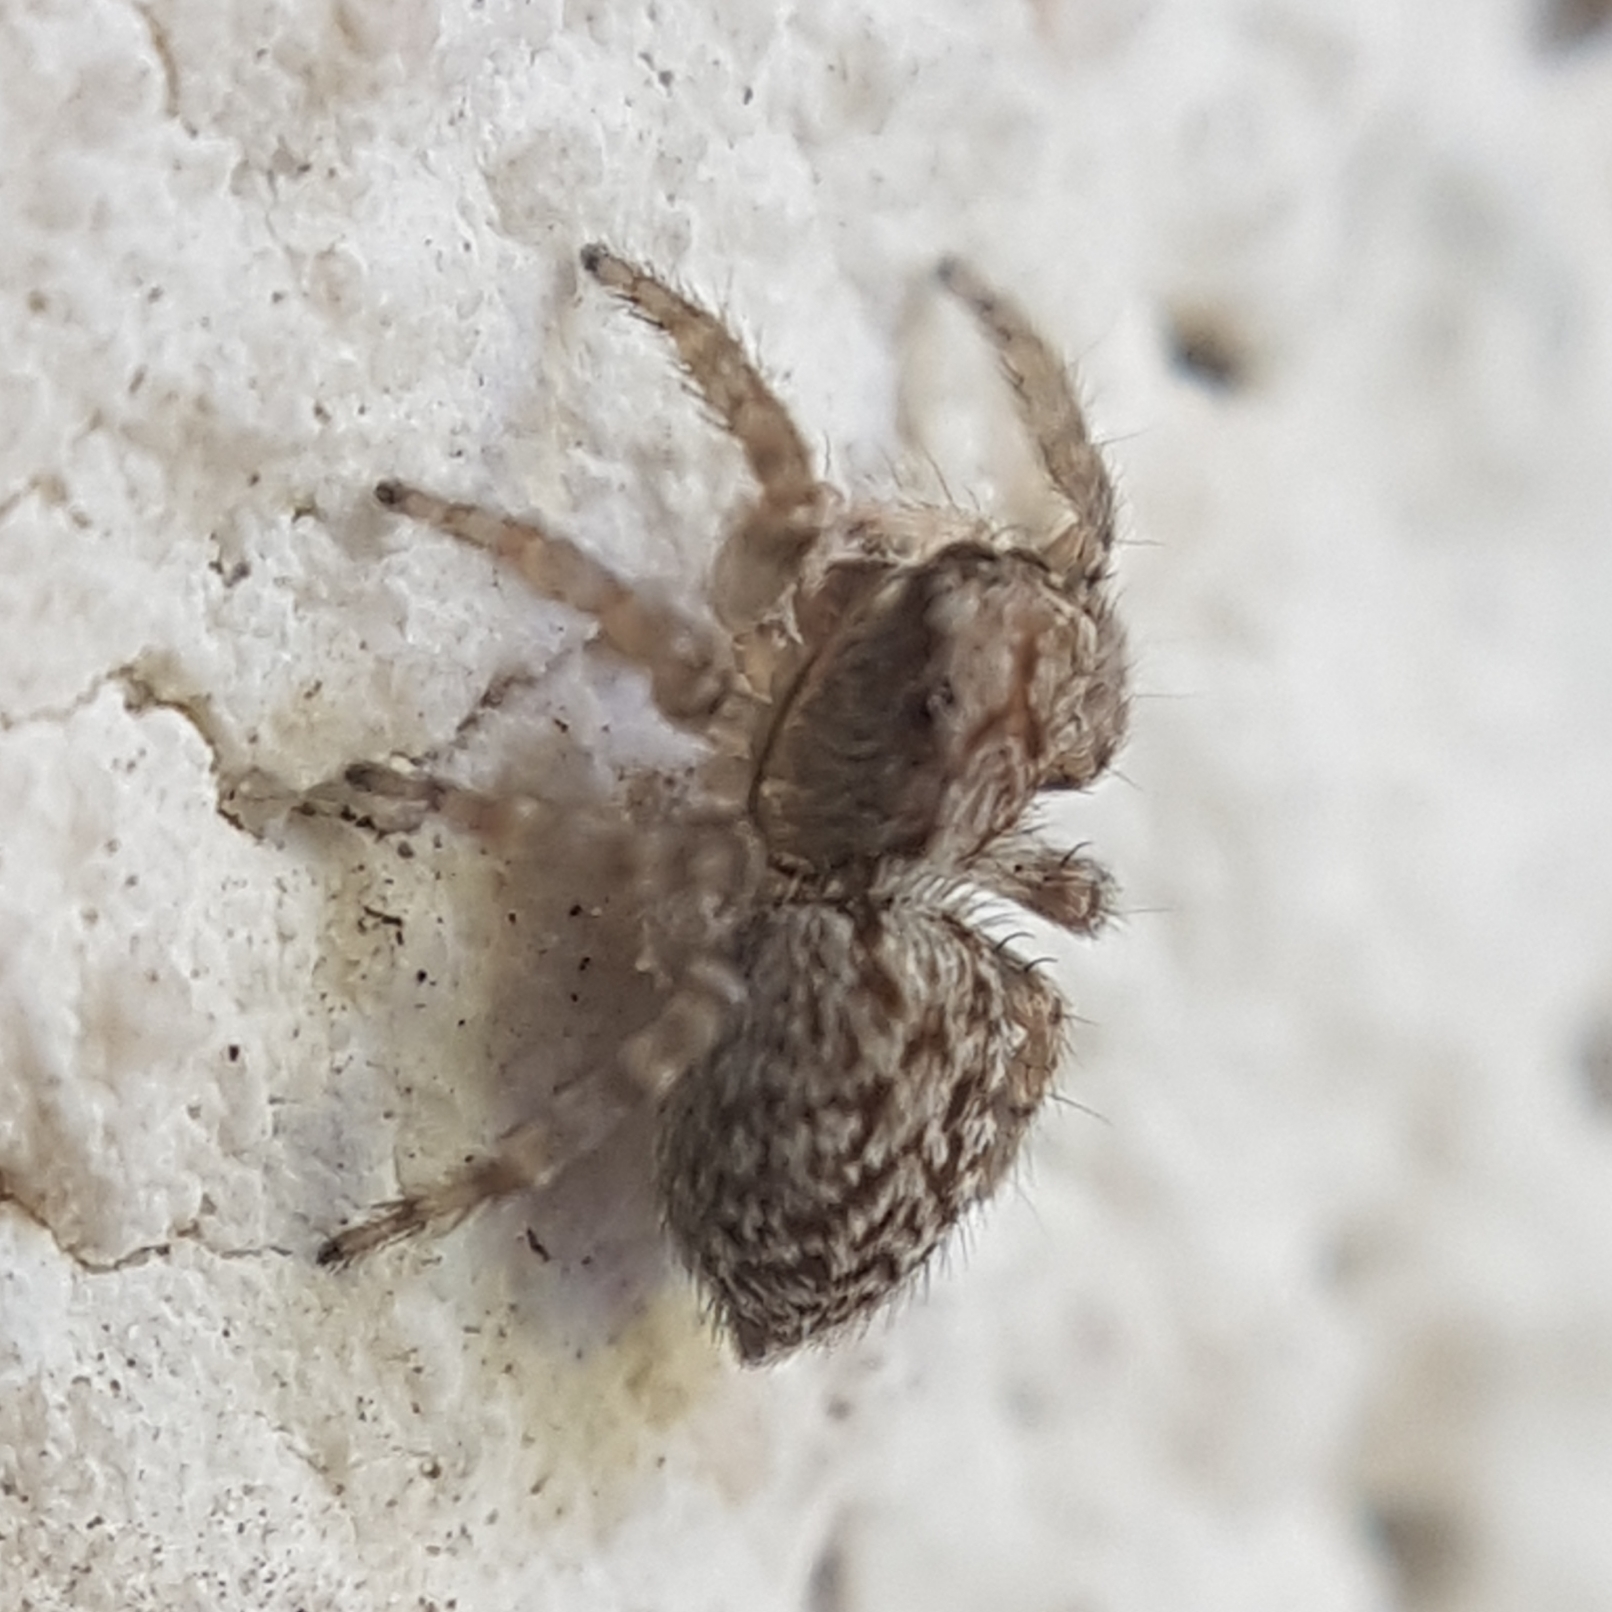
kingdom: Animalia
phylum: Arthropoda
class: Arachnida
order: Araneae
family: Salticidae
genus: Pseudeuophrys
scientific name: Pseudeuophrys vafra
